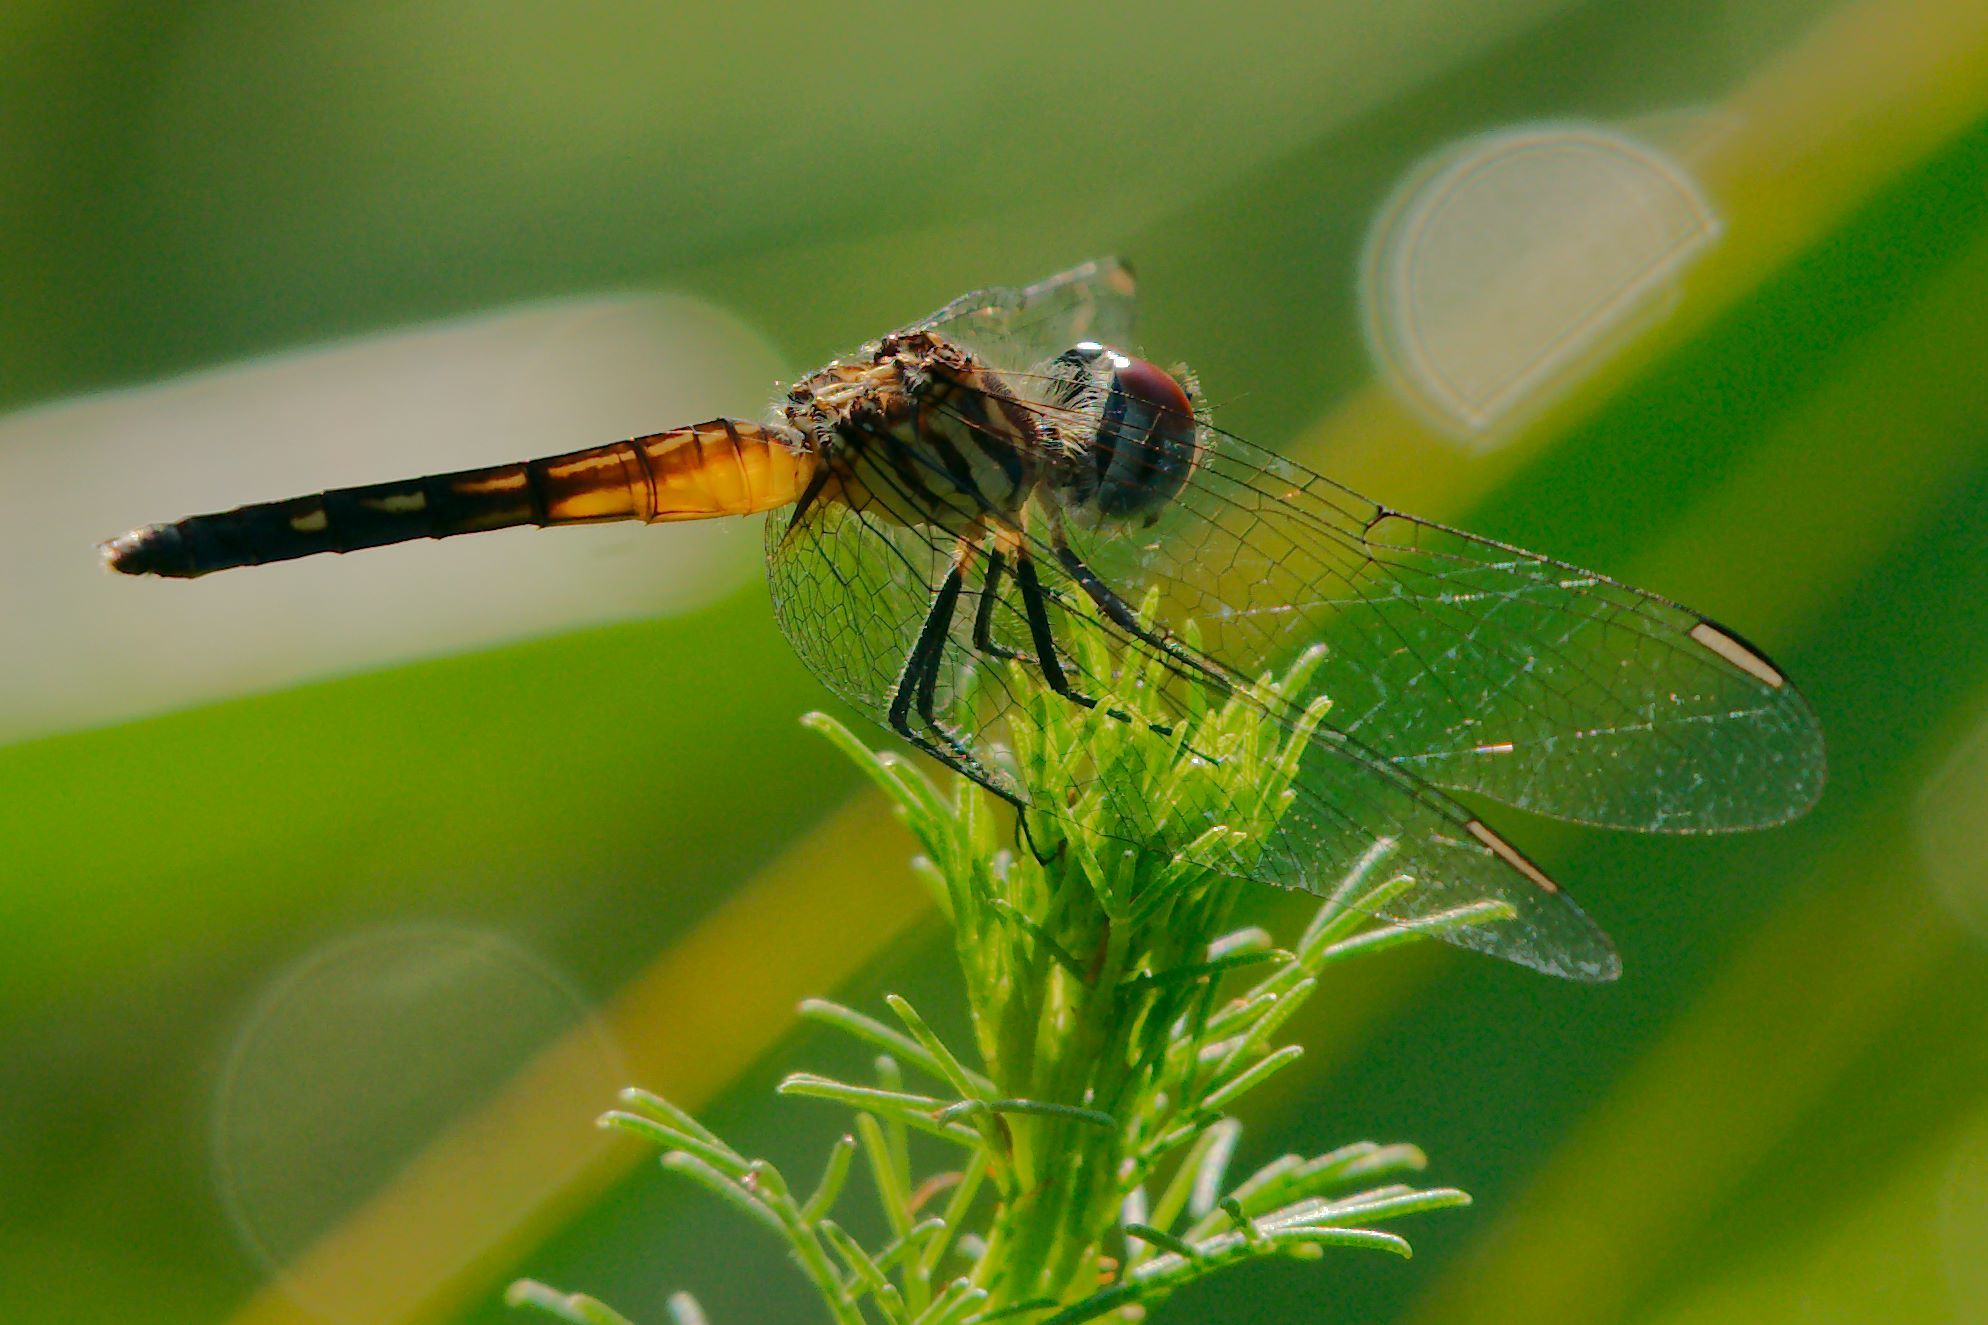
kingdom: Animalia
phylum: Arthropoda
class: Insecta
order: Odonata
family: Libellulidae
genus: Pachydiplax
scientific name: Pachydiplax longipennis
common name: Blue dasher
